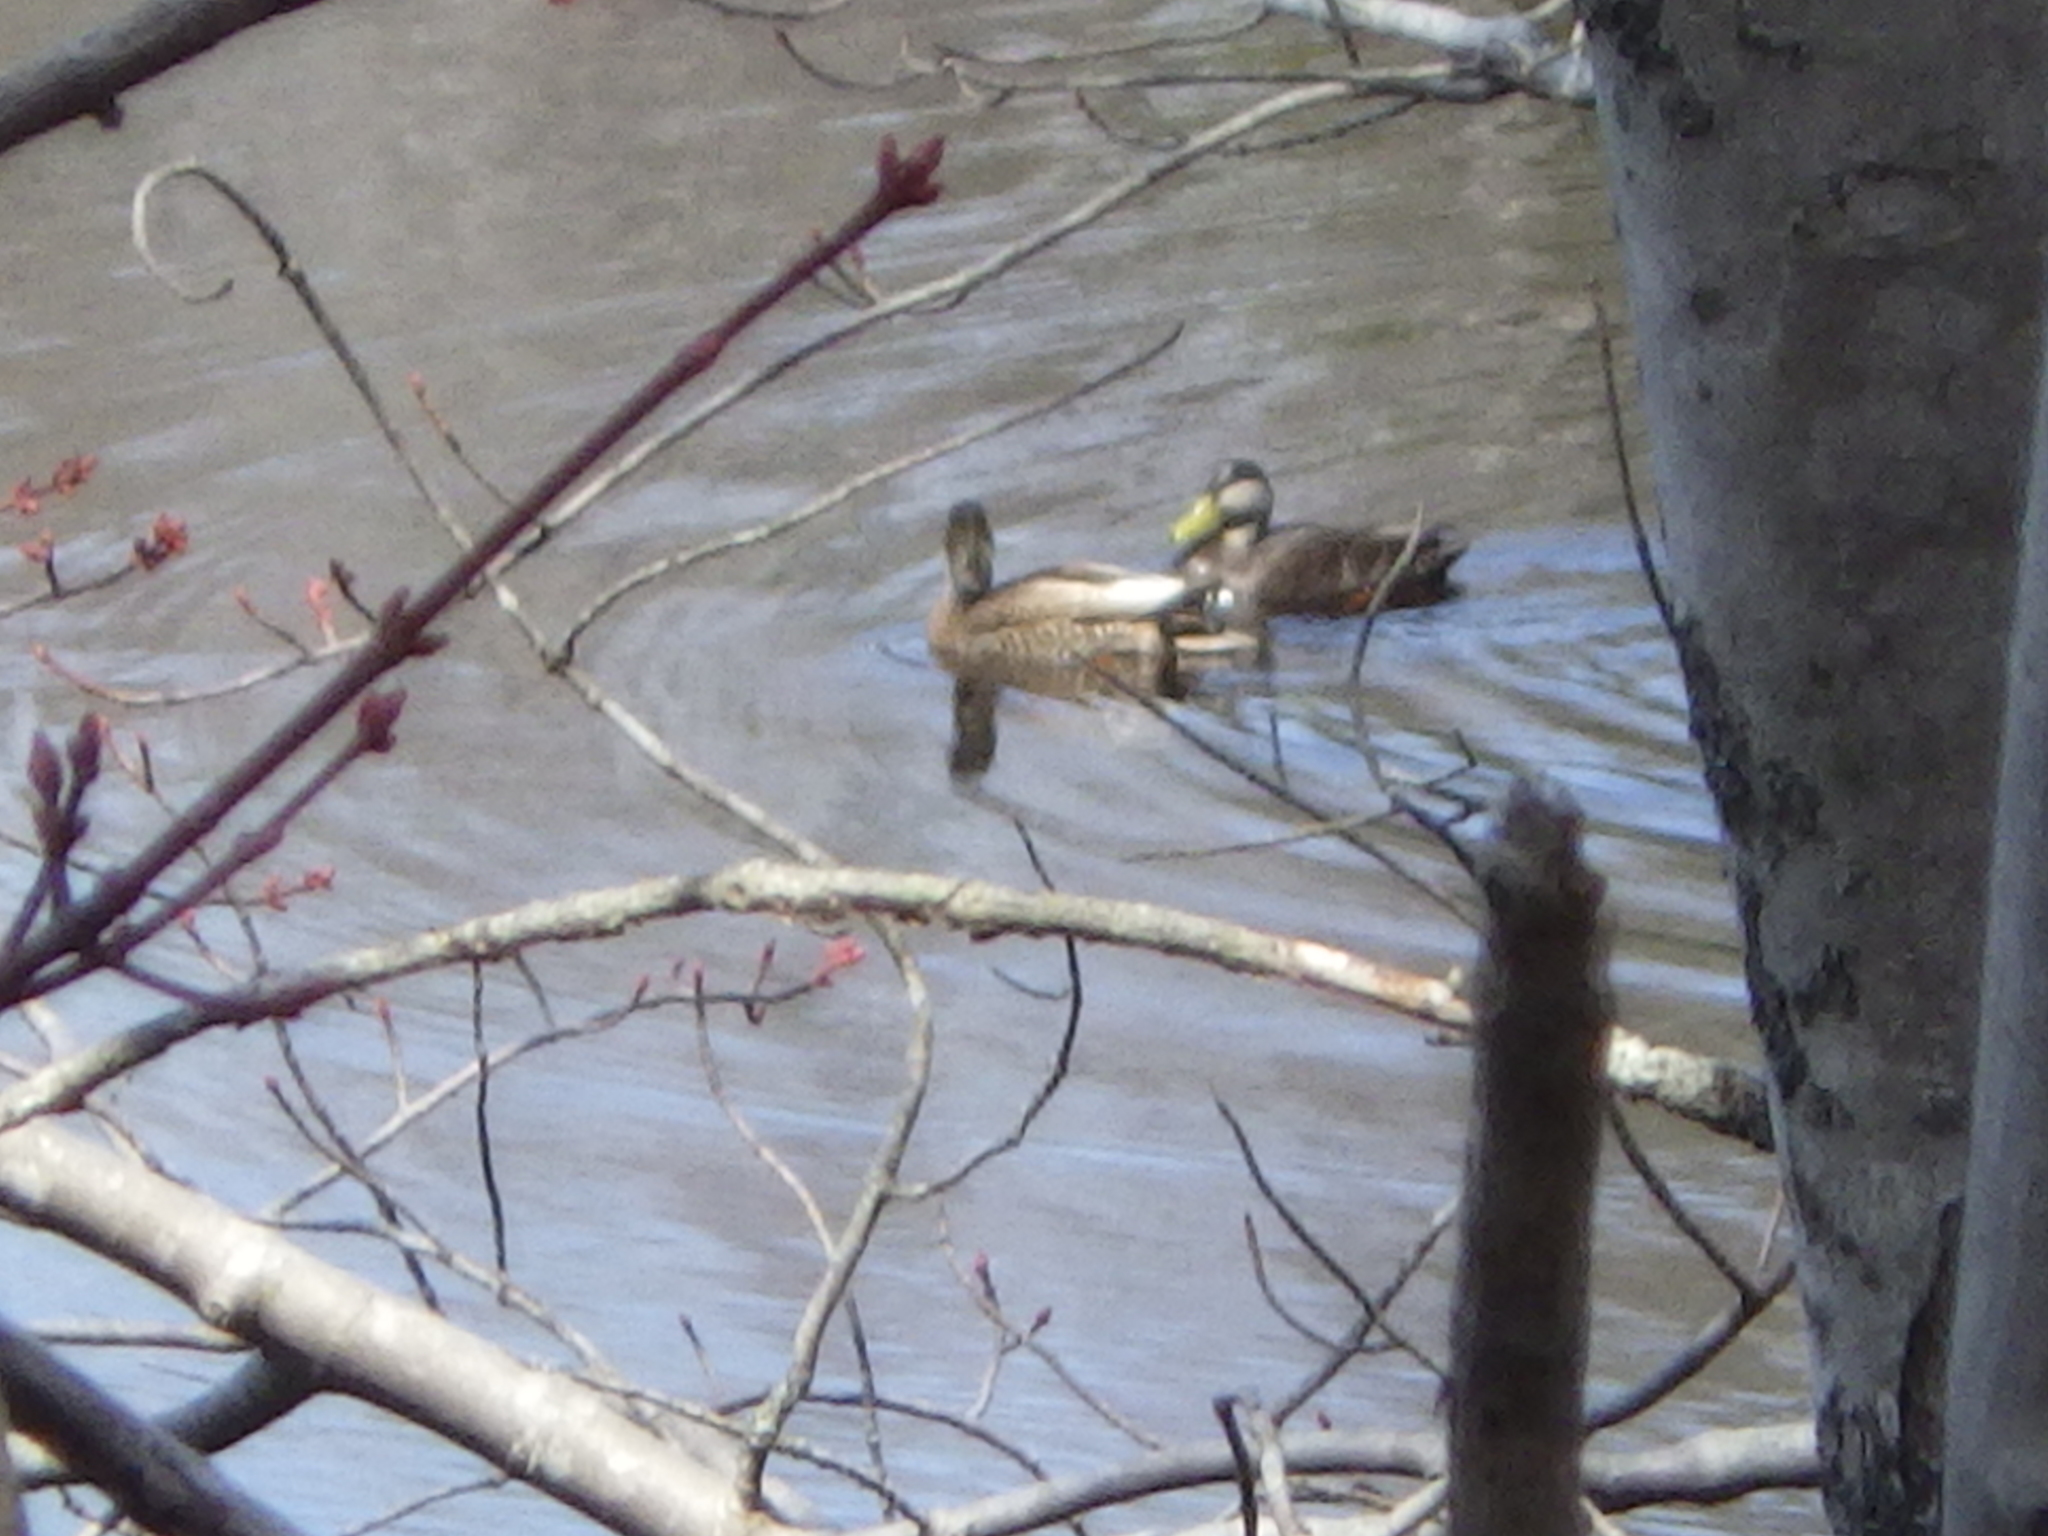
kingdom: Animalia
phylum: Chordata
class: Aves
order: Anseriformes
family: Anatidae
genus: Anas
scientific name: Anas
